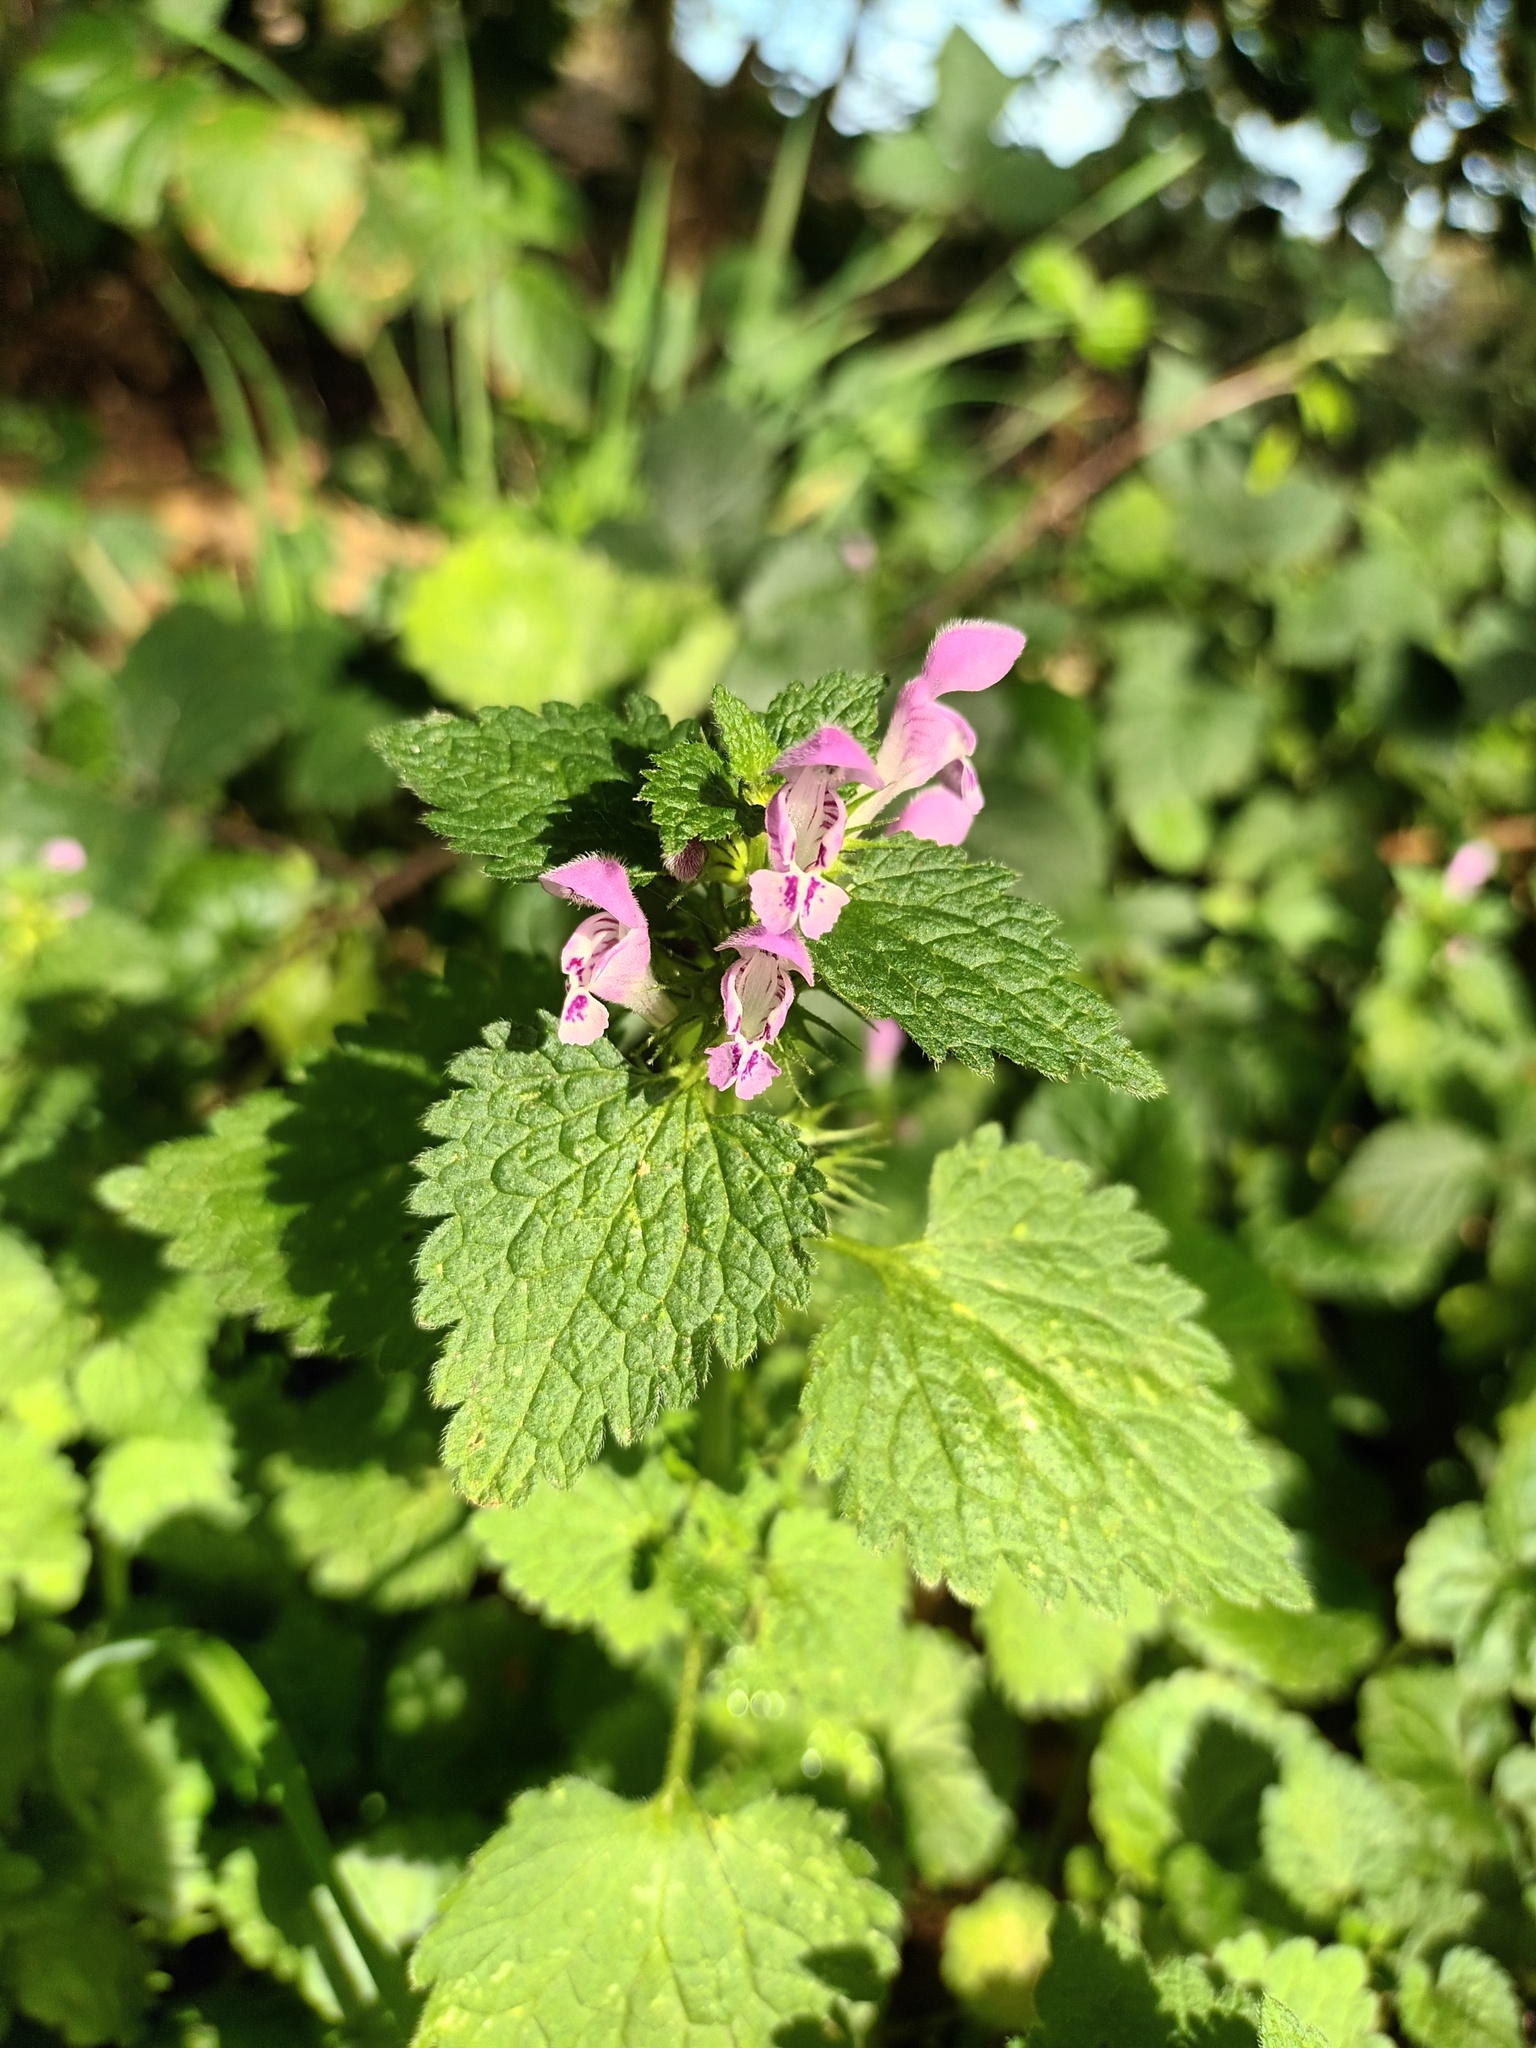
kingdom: Plantae
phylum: Tracheophyta
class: Magnoliopsida
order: Lamiales
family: Lamiaceae
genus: Lamium
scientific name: Lamium purpureum
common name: Red dead-nettle
